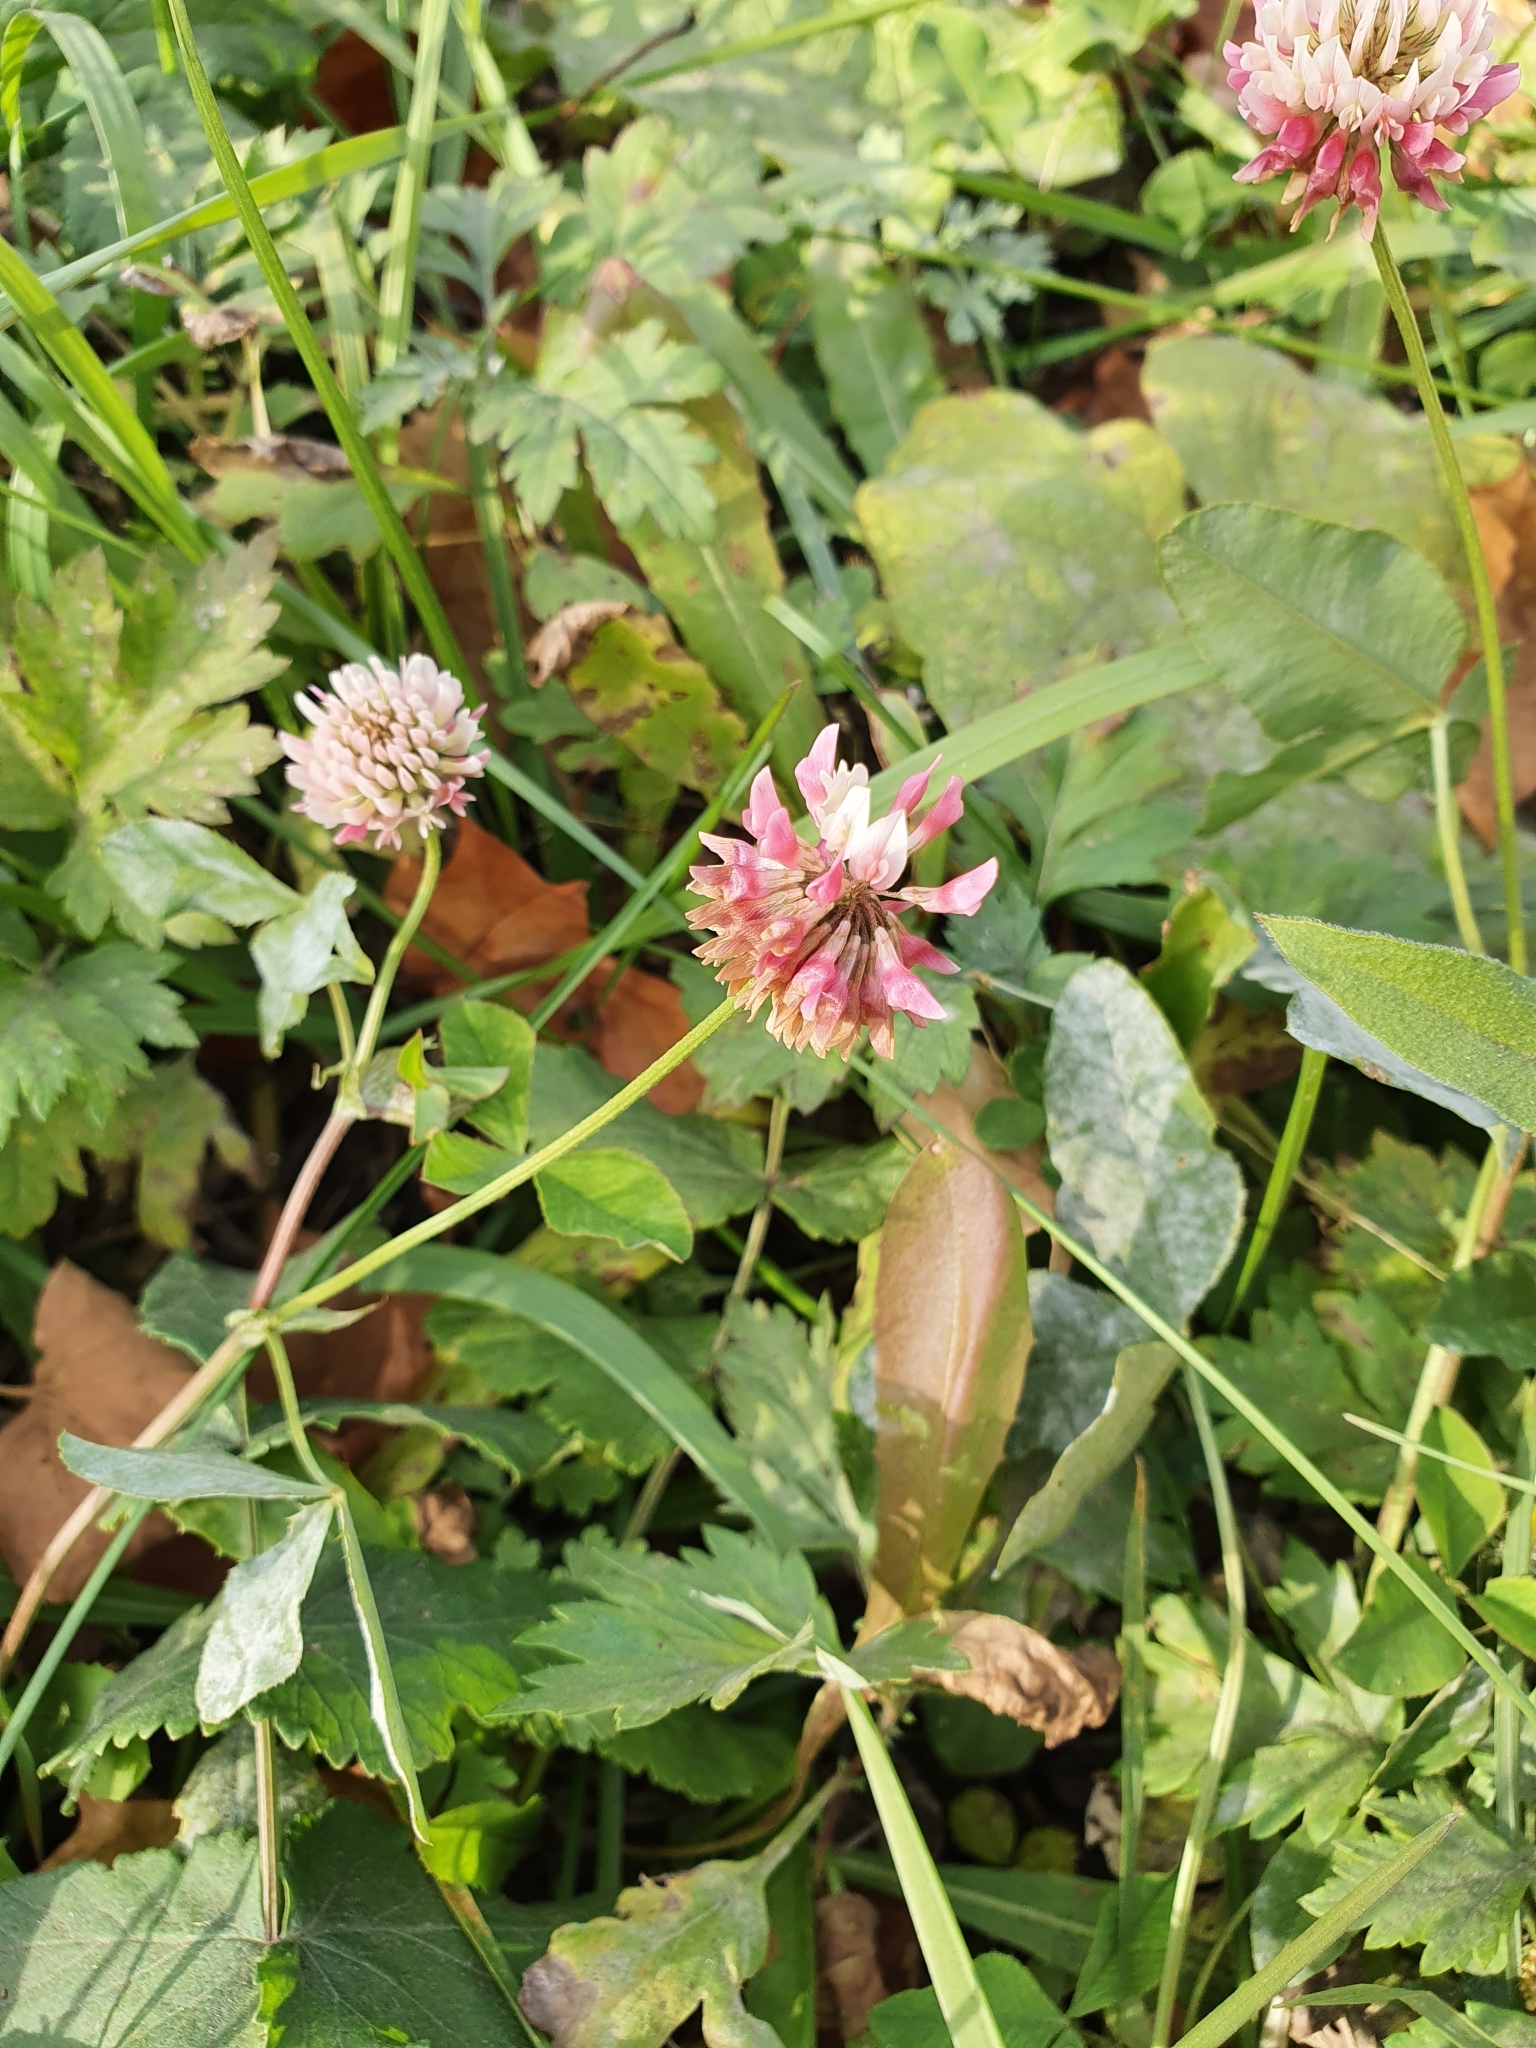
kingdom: Plantae
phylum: Tracheophyta
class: Magnoliopsida
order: Fabales
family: Fabaceae
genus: Trifolium
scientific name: Trifolium hybridum
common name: Alsike clover
